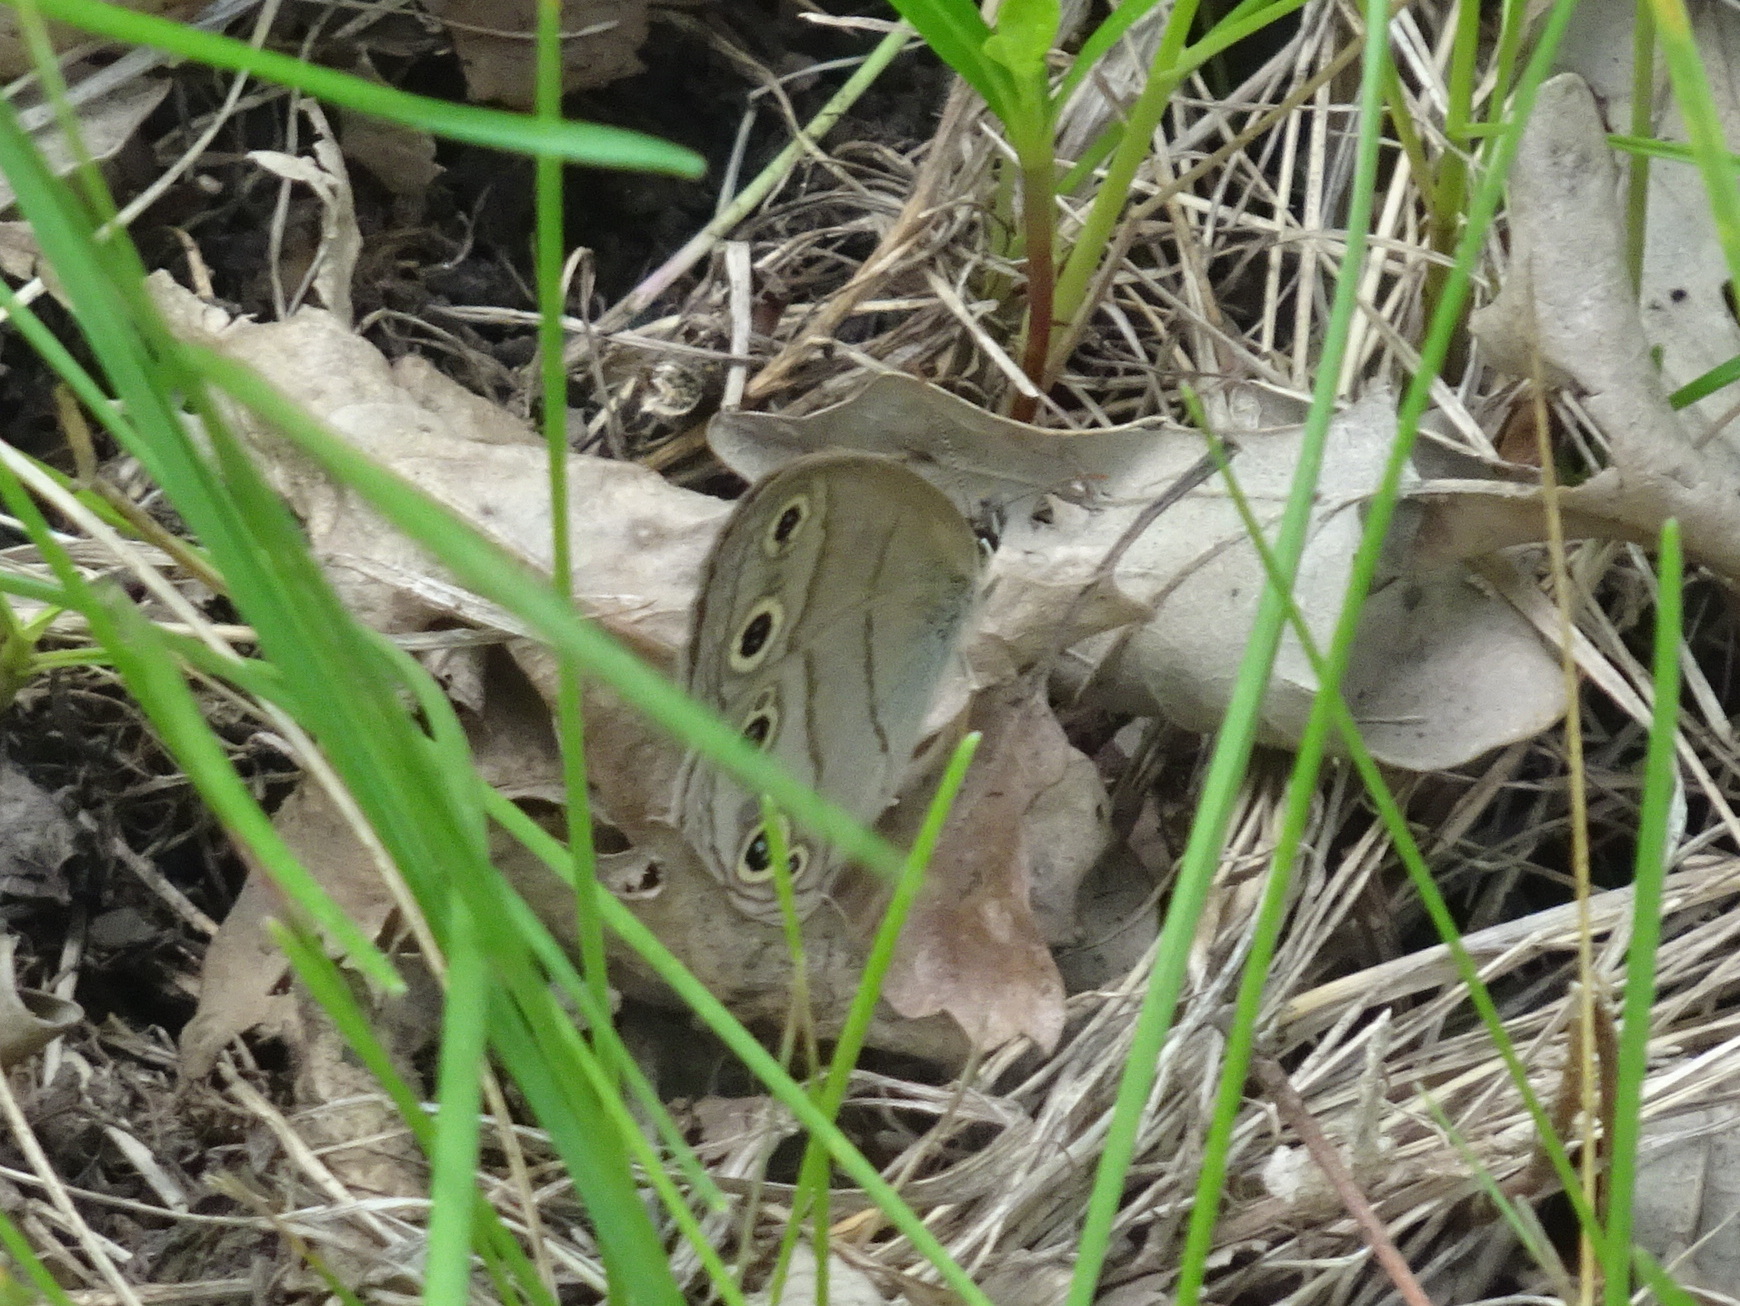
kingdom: Animalia
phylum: Arthropoda
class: Insecta
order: Lepidoptera
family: Nymphalidae
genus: Euptychia
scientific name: Euptychia cymela
